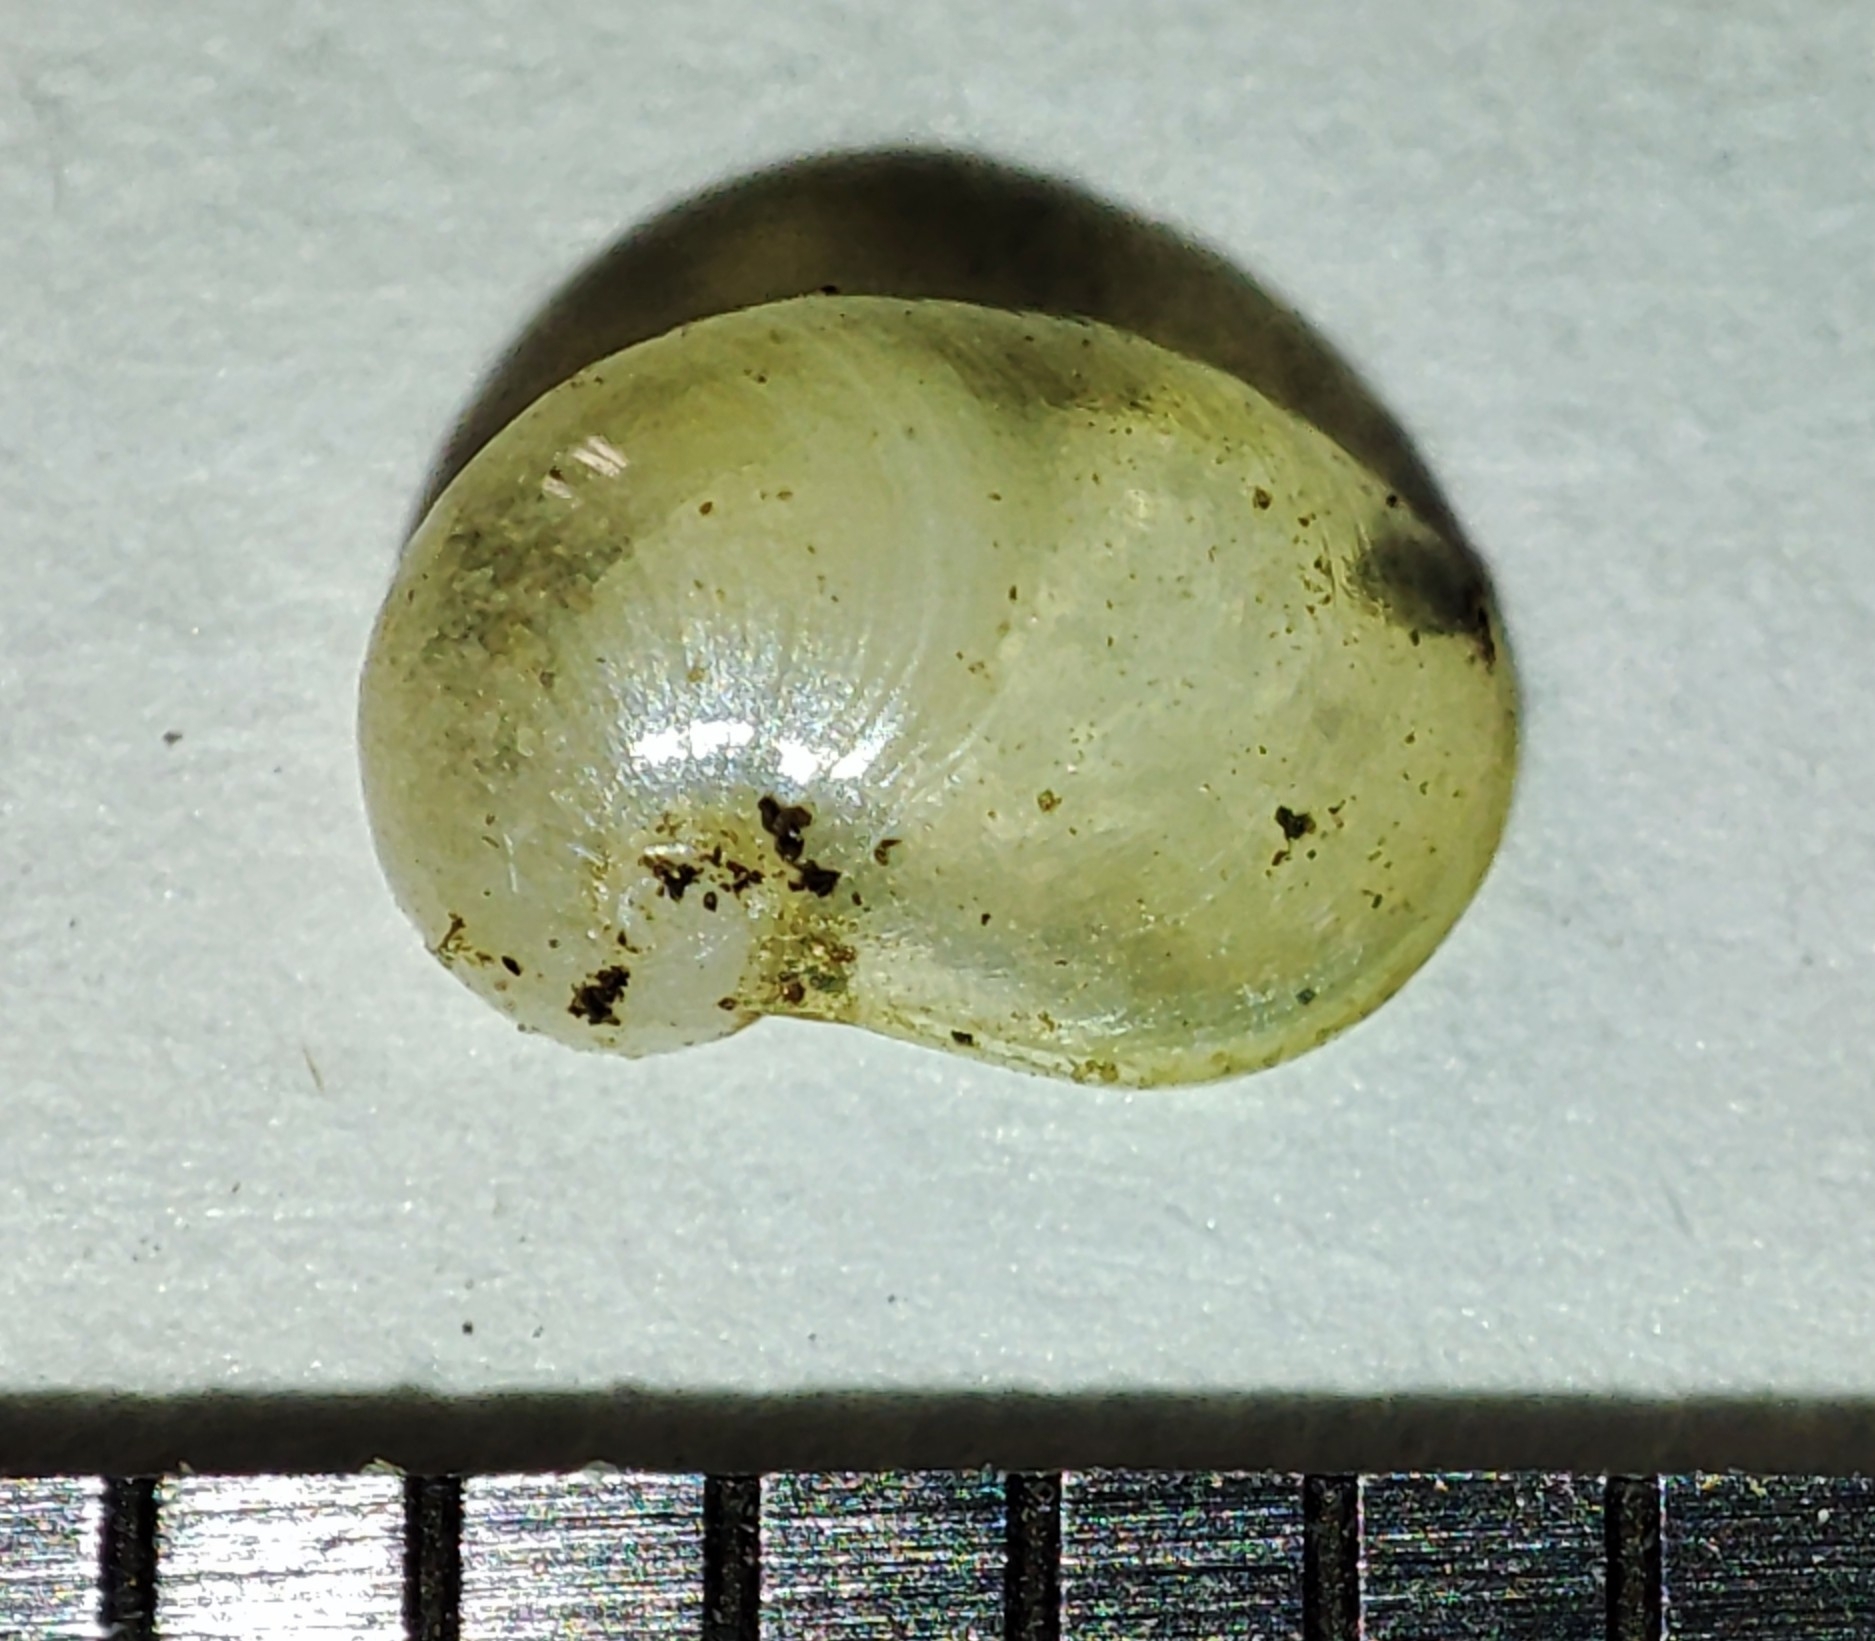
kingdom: Animalia
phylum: Mollusca
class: Gastropoda
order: Stylommatophora
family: Vitrinidae
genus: Semilimax
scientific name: Semilimax semilimax
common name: Wide-mouth glass snail
